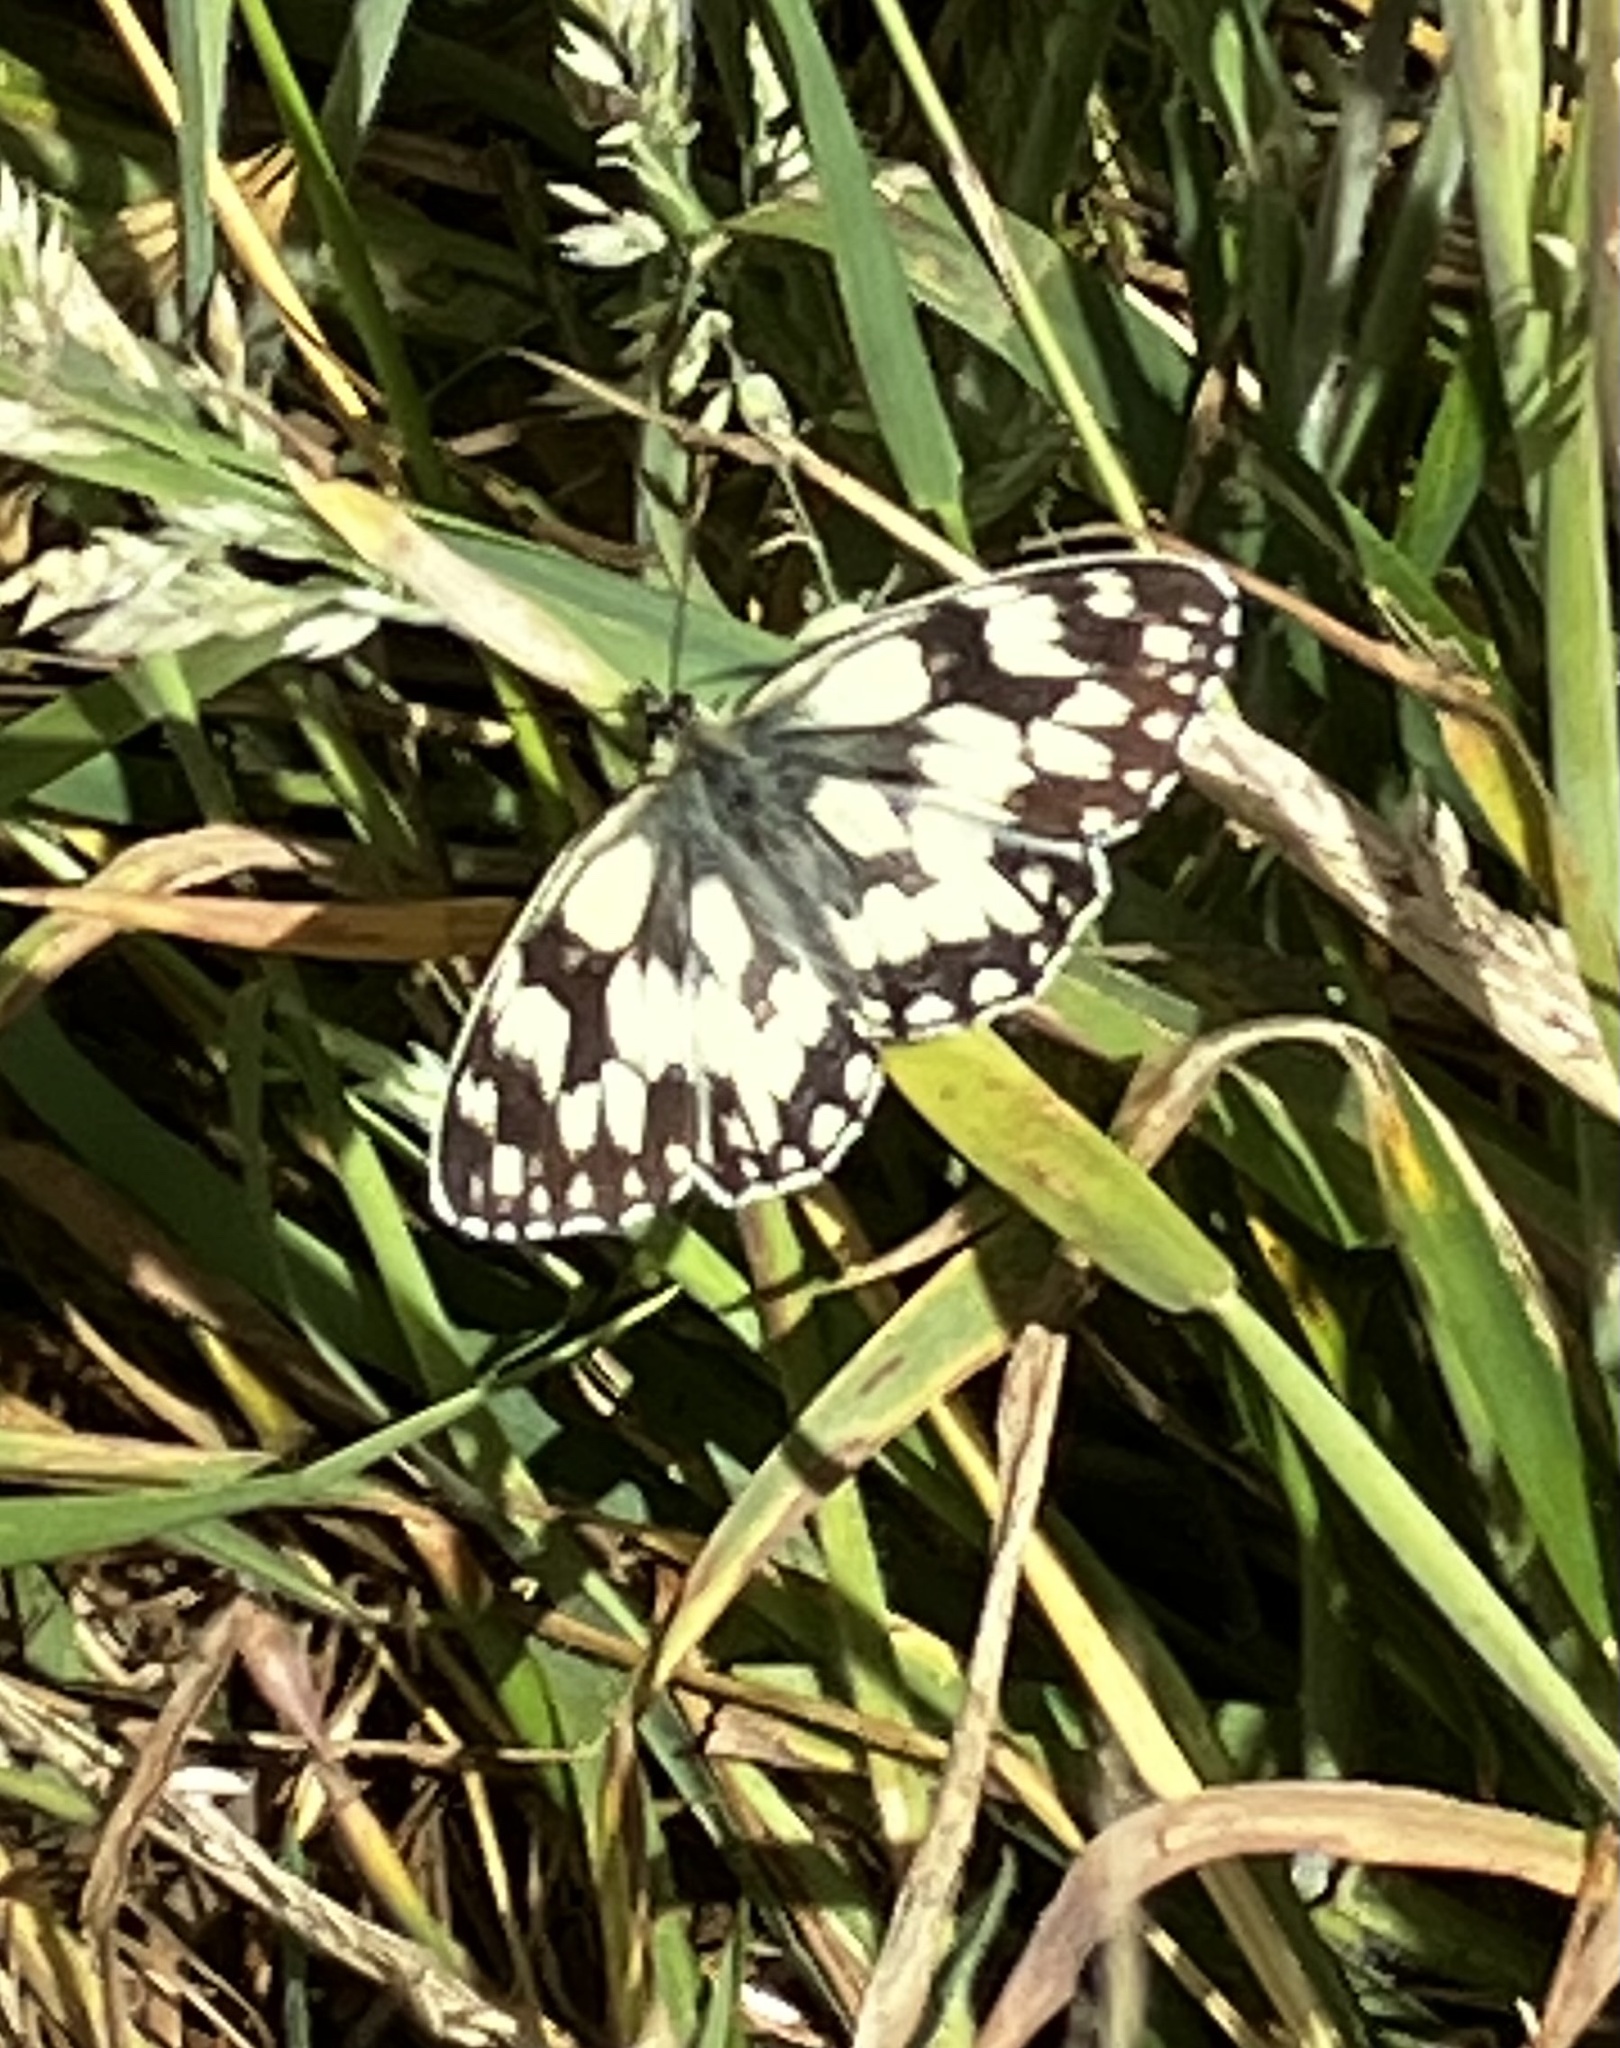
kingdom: Animalia
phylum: Arthropoda
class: Insecta
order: Lepidoptera
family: Nymphalidae
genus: Melanargia
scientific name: Melanargia galathea
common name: Marbled white
